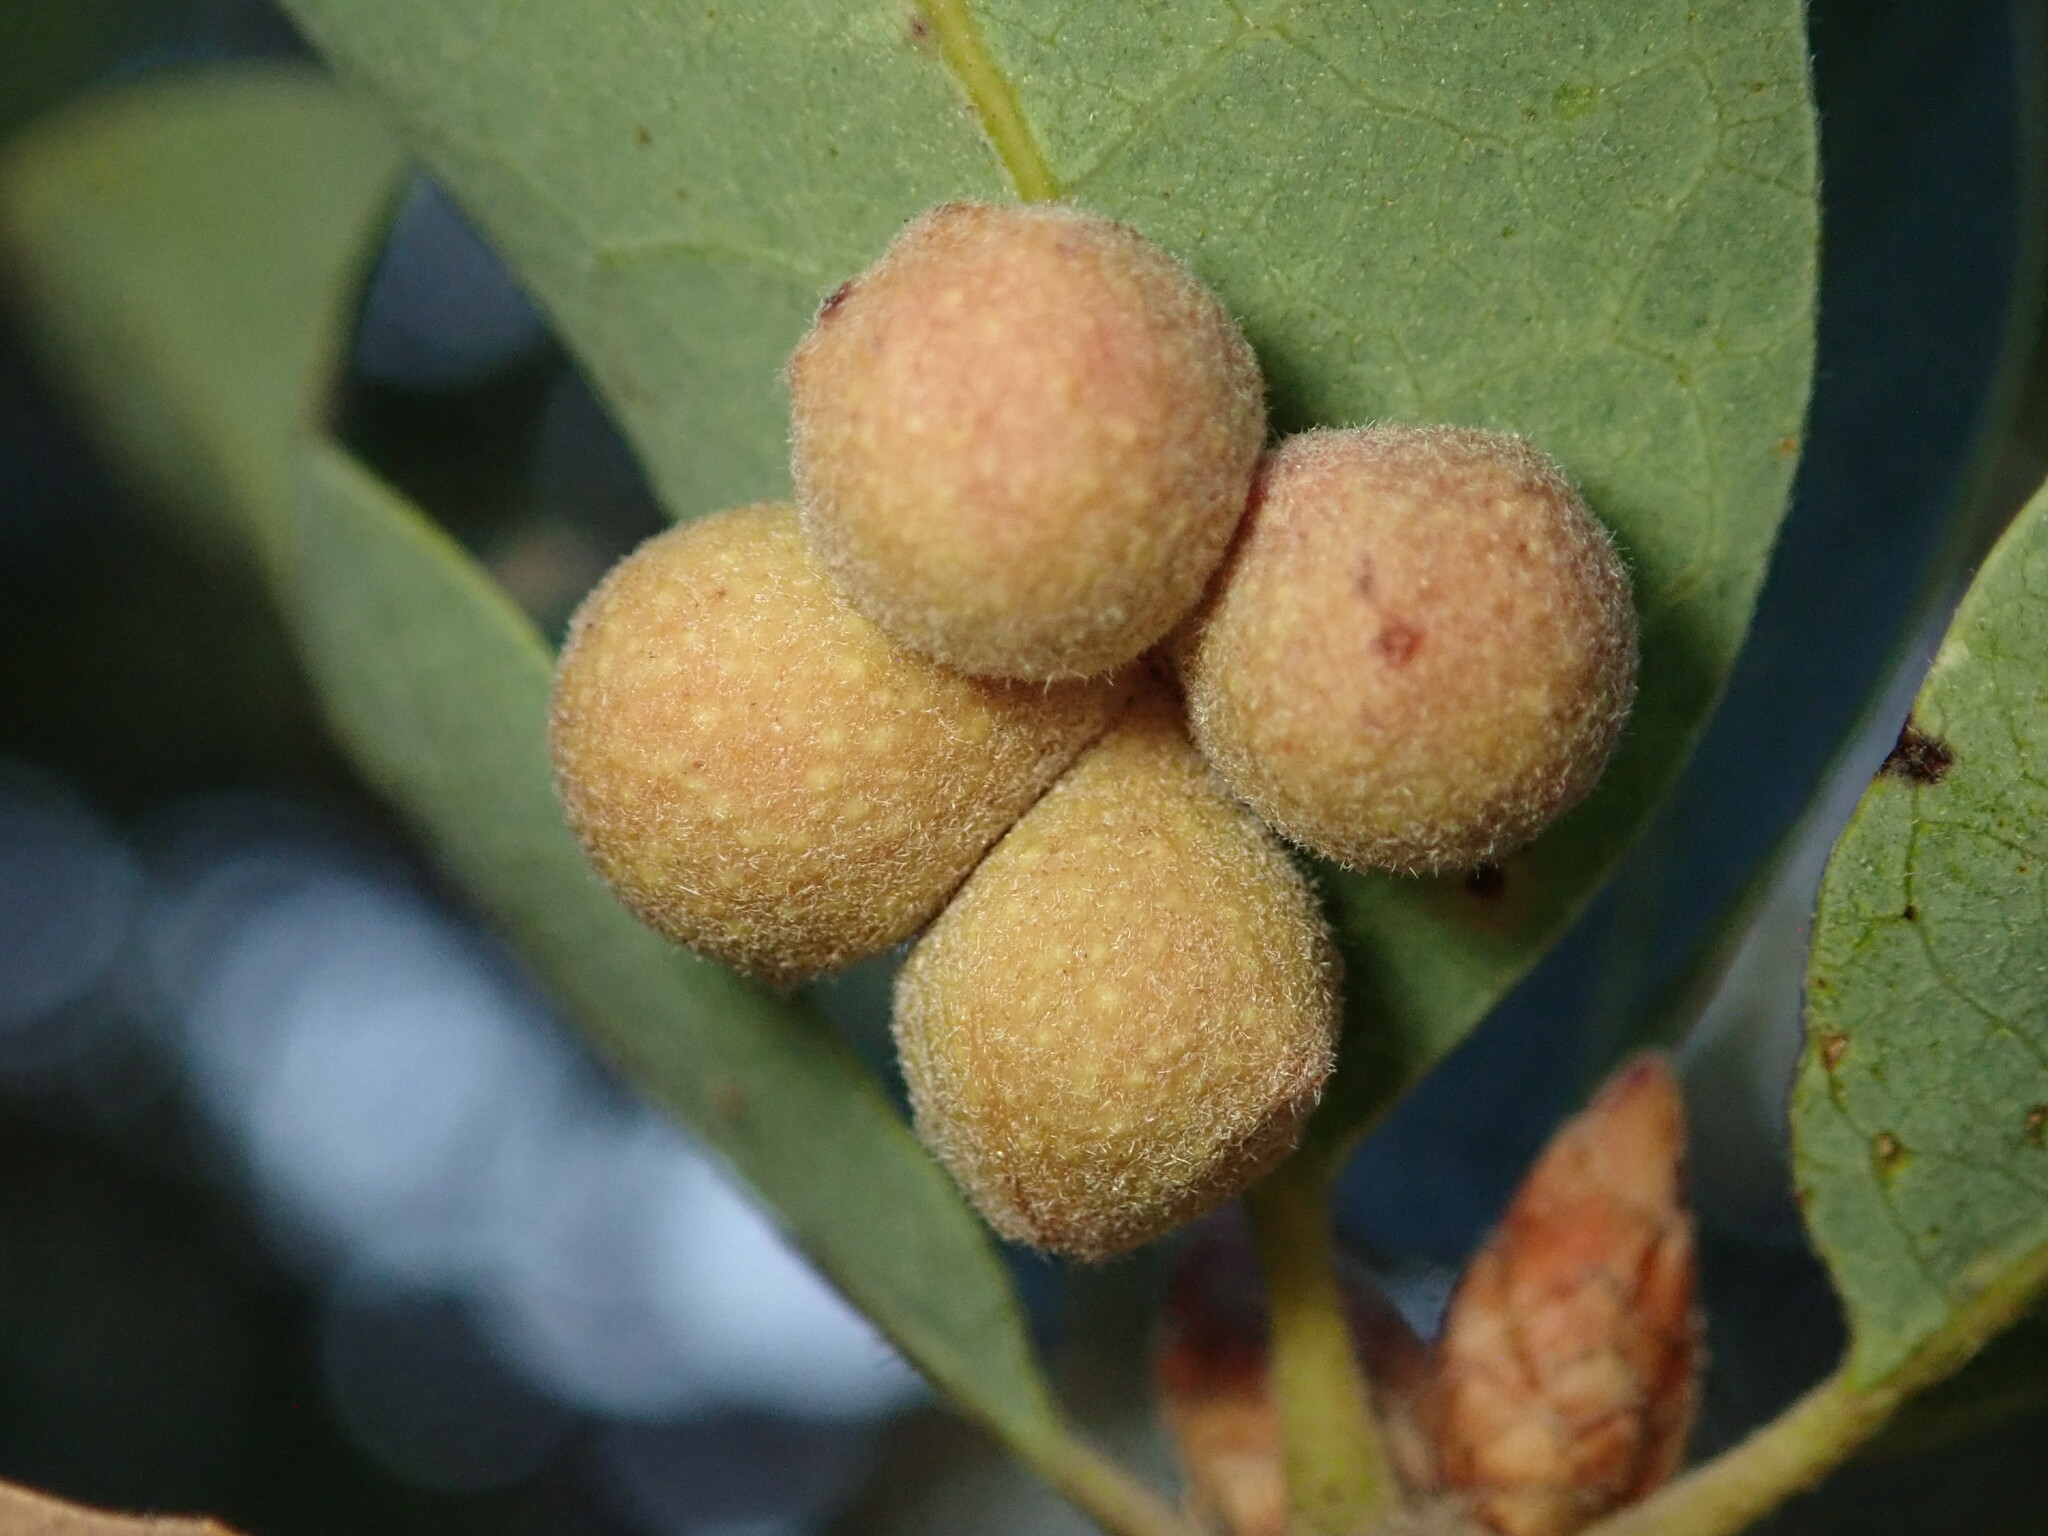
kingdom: Animalia
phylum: Arthropoda
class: Insecta
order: Hymenoptera
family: Cynipidae
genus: Andricus
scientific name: Andricus
